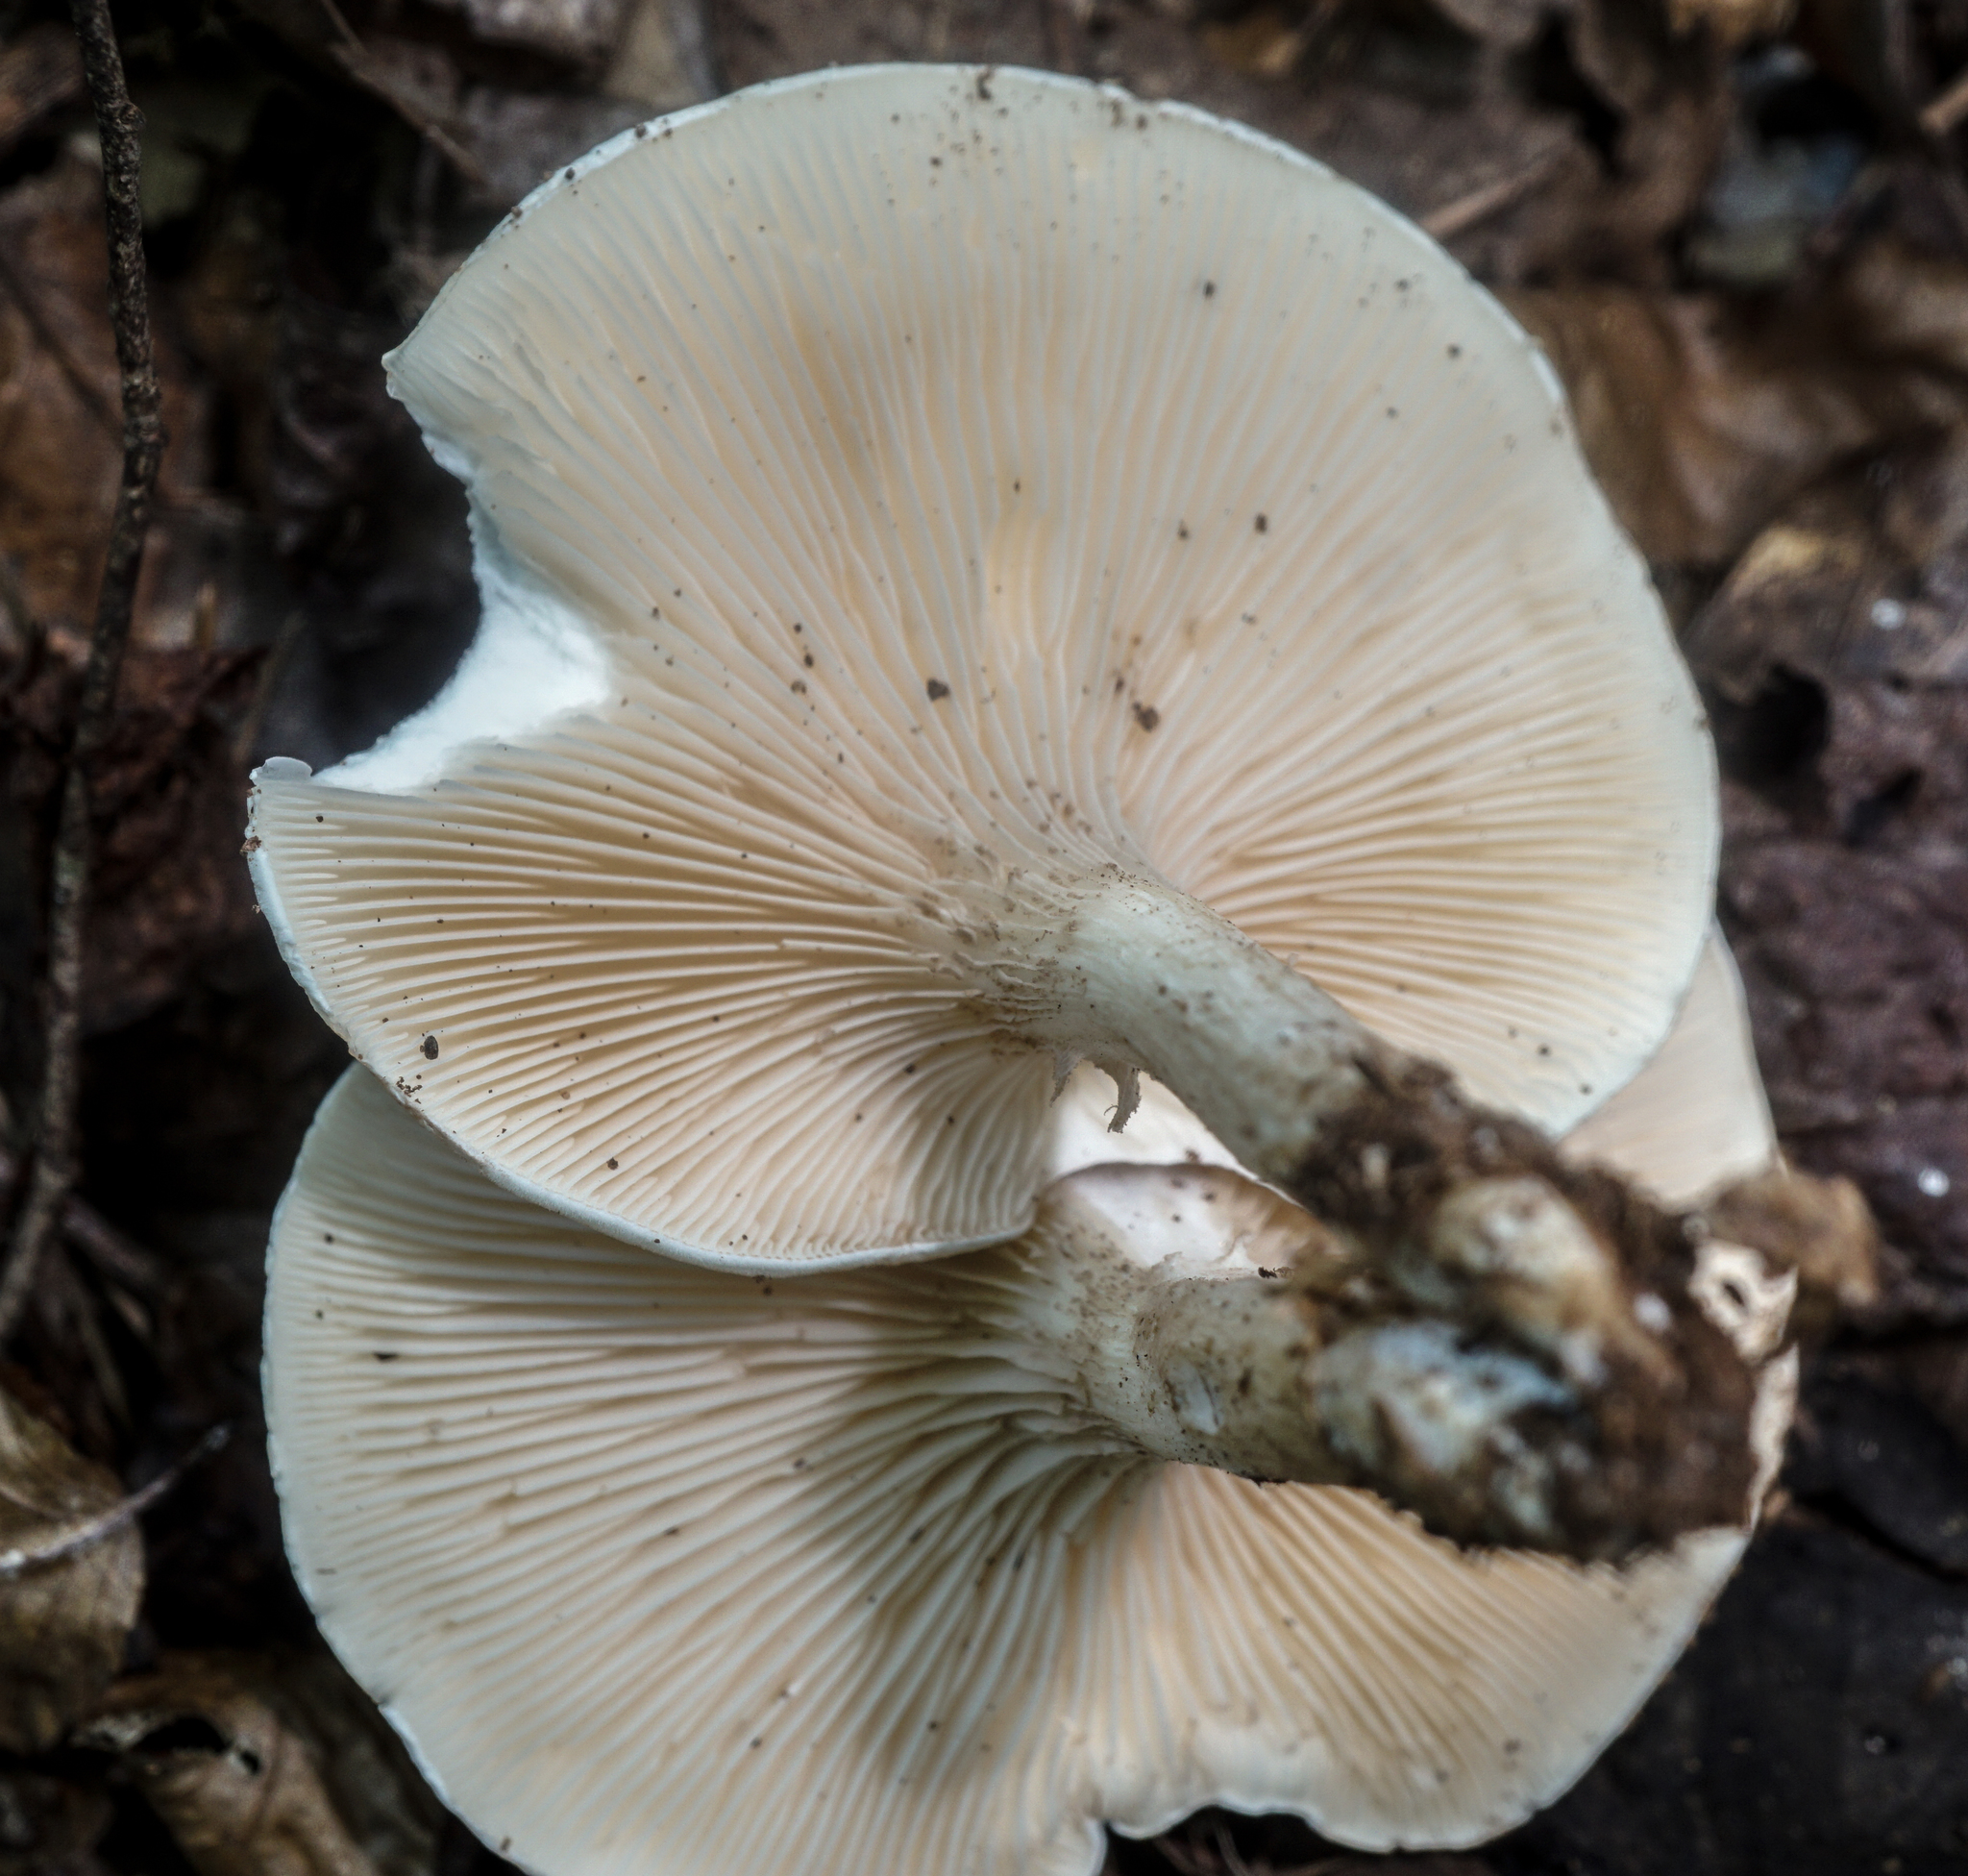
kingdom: Fungi
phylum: Basidiomycota
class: Agaricomycetes
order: Agaricales
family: Entolomataceae
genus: Clitopilus
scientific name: Clitopilus prunulus
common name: The miller
